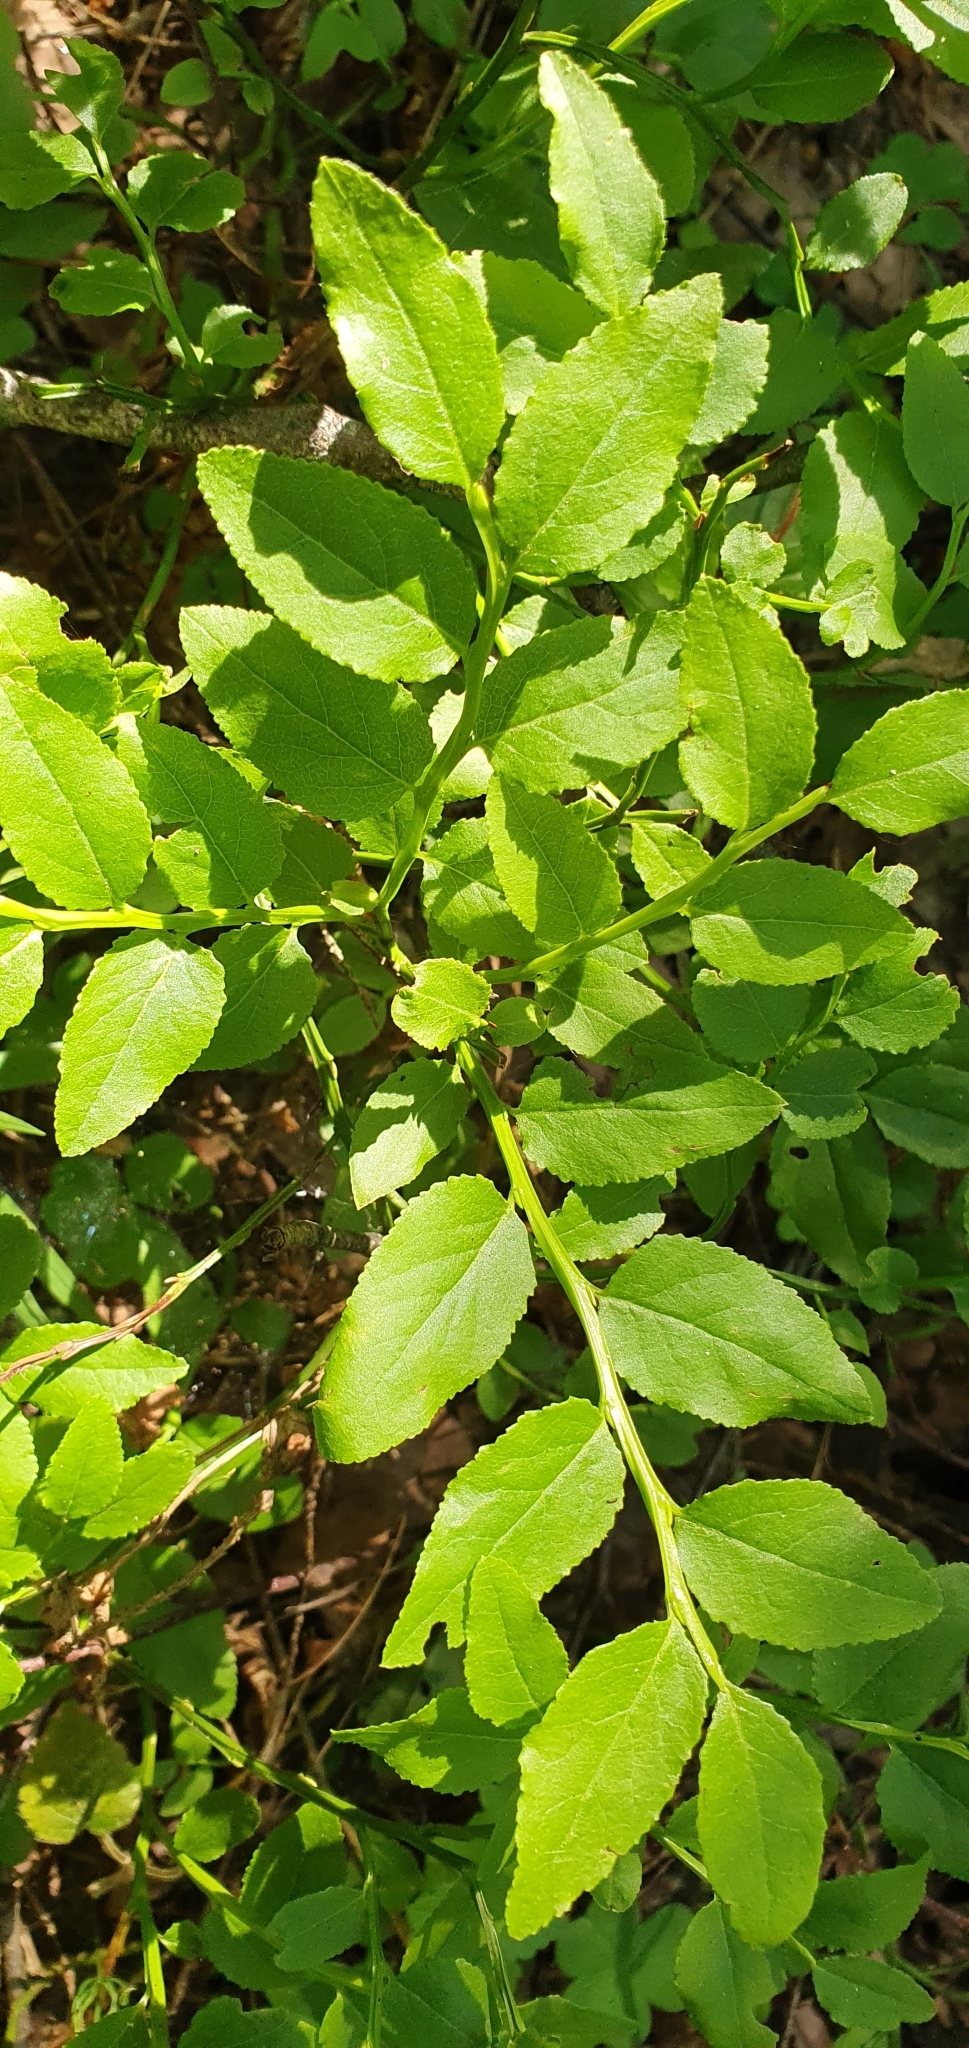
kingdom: Plantae
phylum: Tracheophyta
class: Magnoliopsida
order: Ericales
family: Ericaceae
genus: Vaccinium
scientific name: Vaccinium myrtillus
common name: Bilberry
